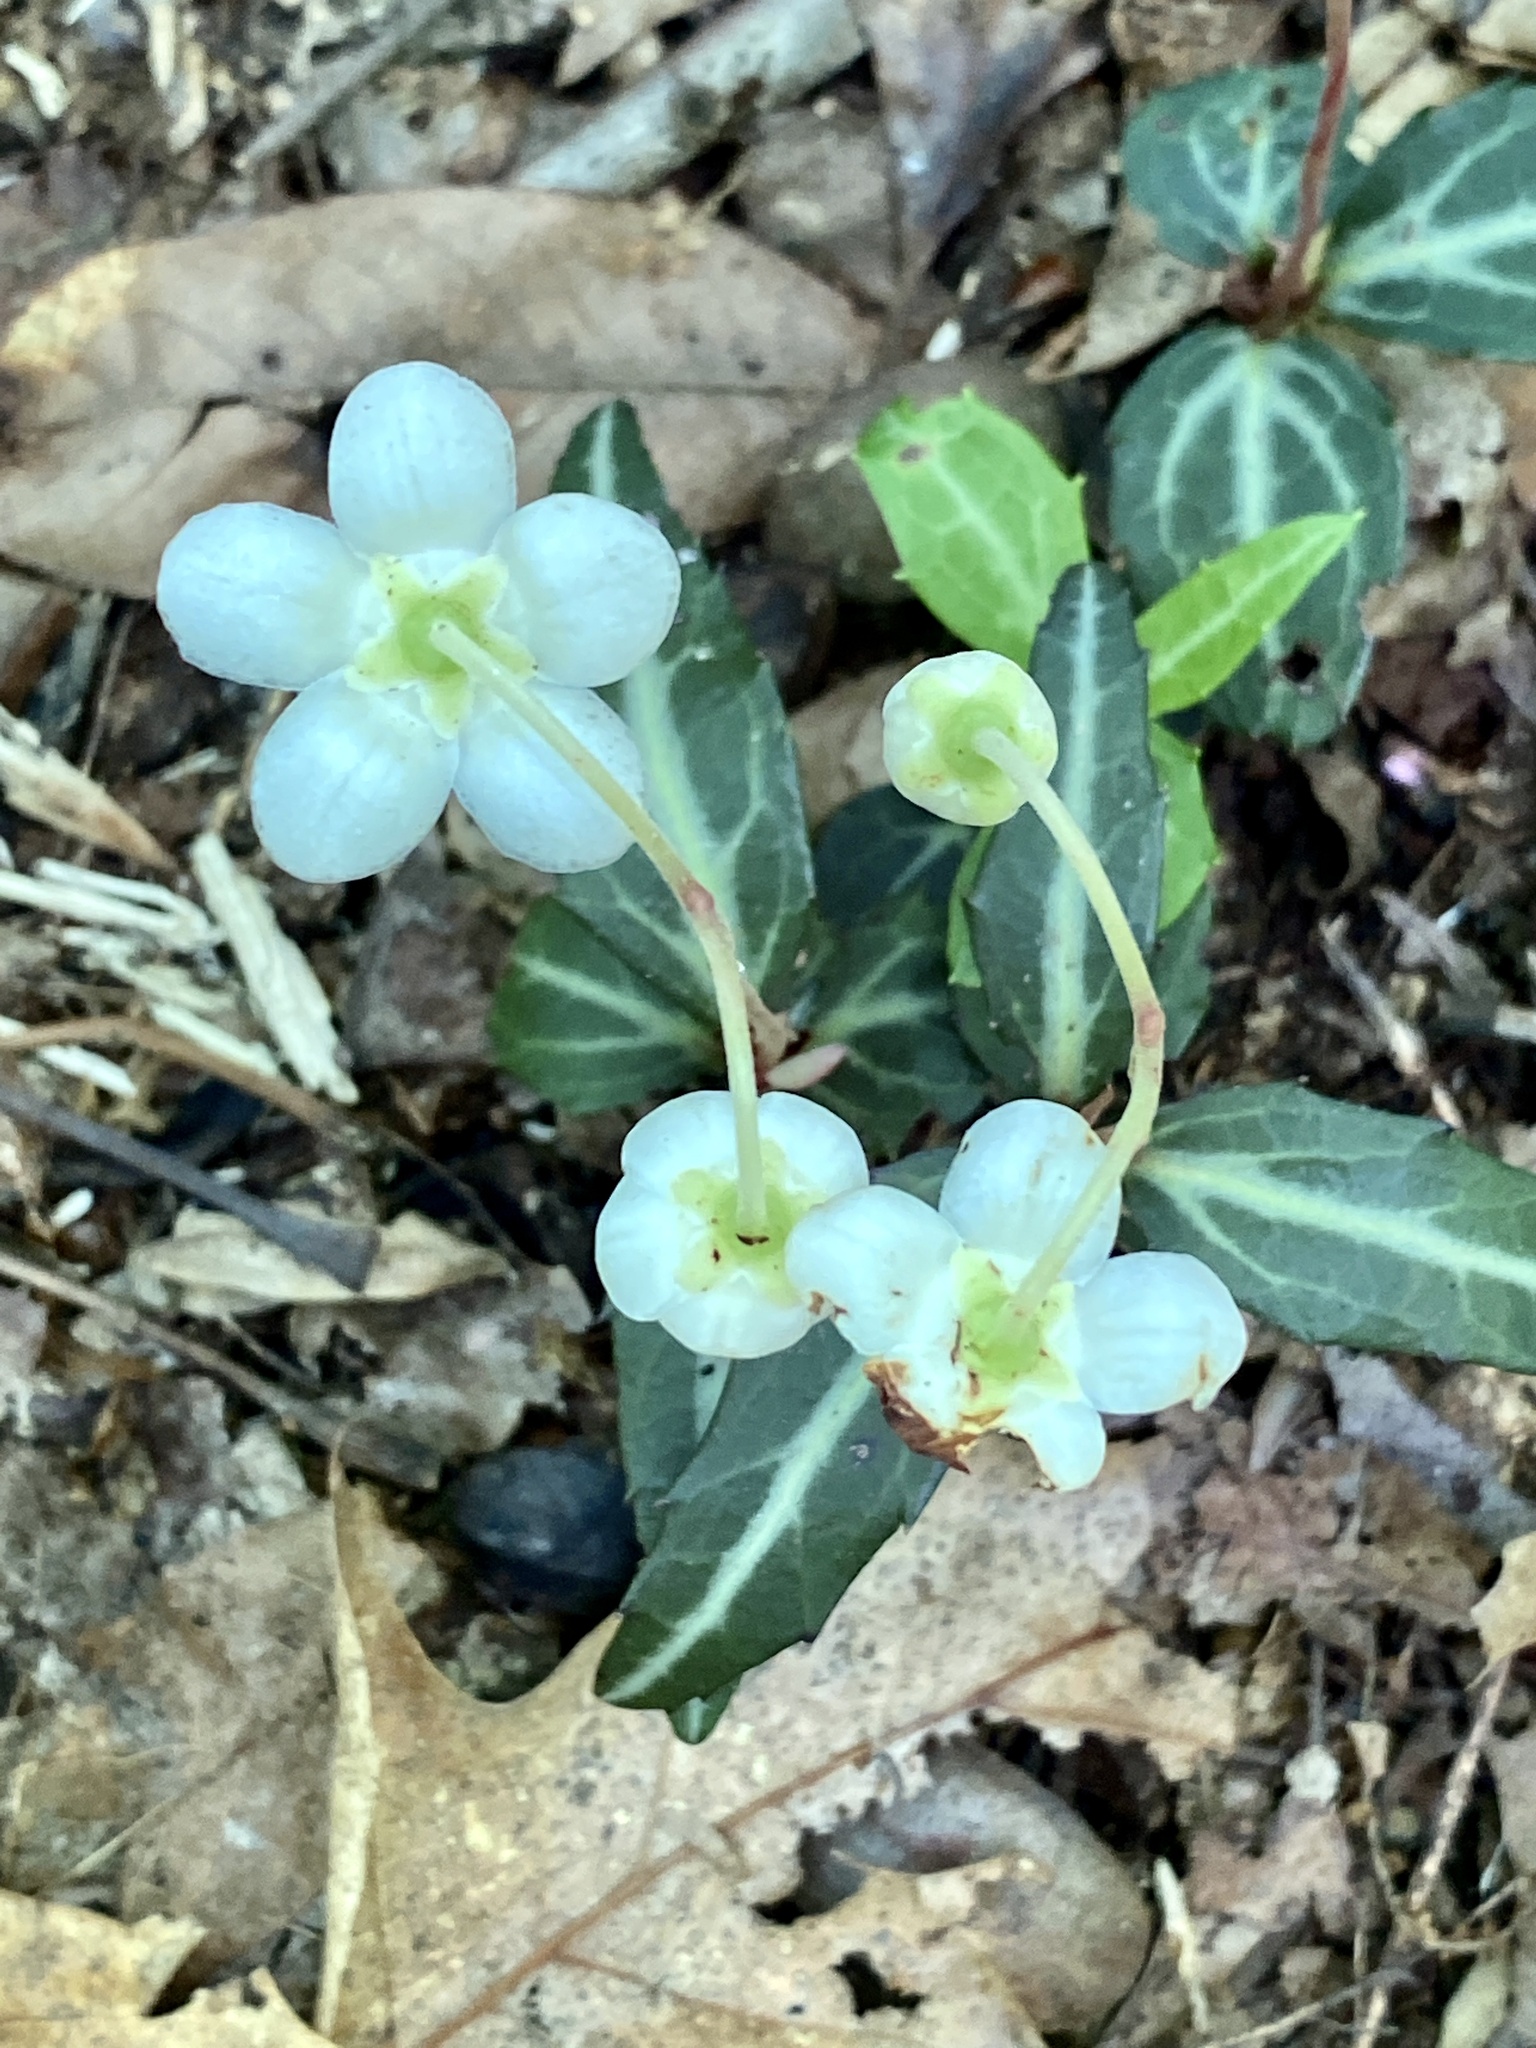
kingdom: Plantae
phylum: Tracheophyta
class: Magnoliopsida
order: Ericales
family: Ericaceae
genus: Chimaphila
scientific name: Chimaphila maculata
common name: Spotted pipsissewa
